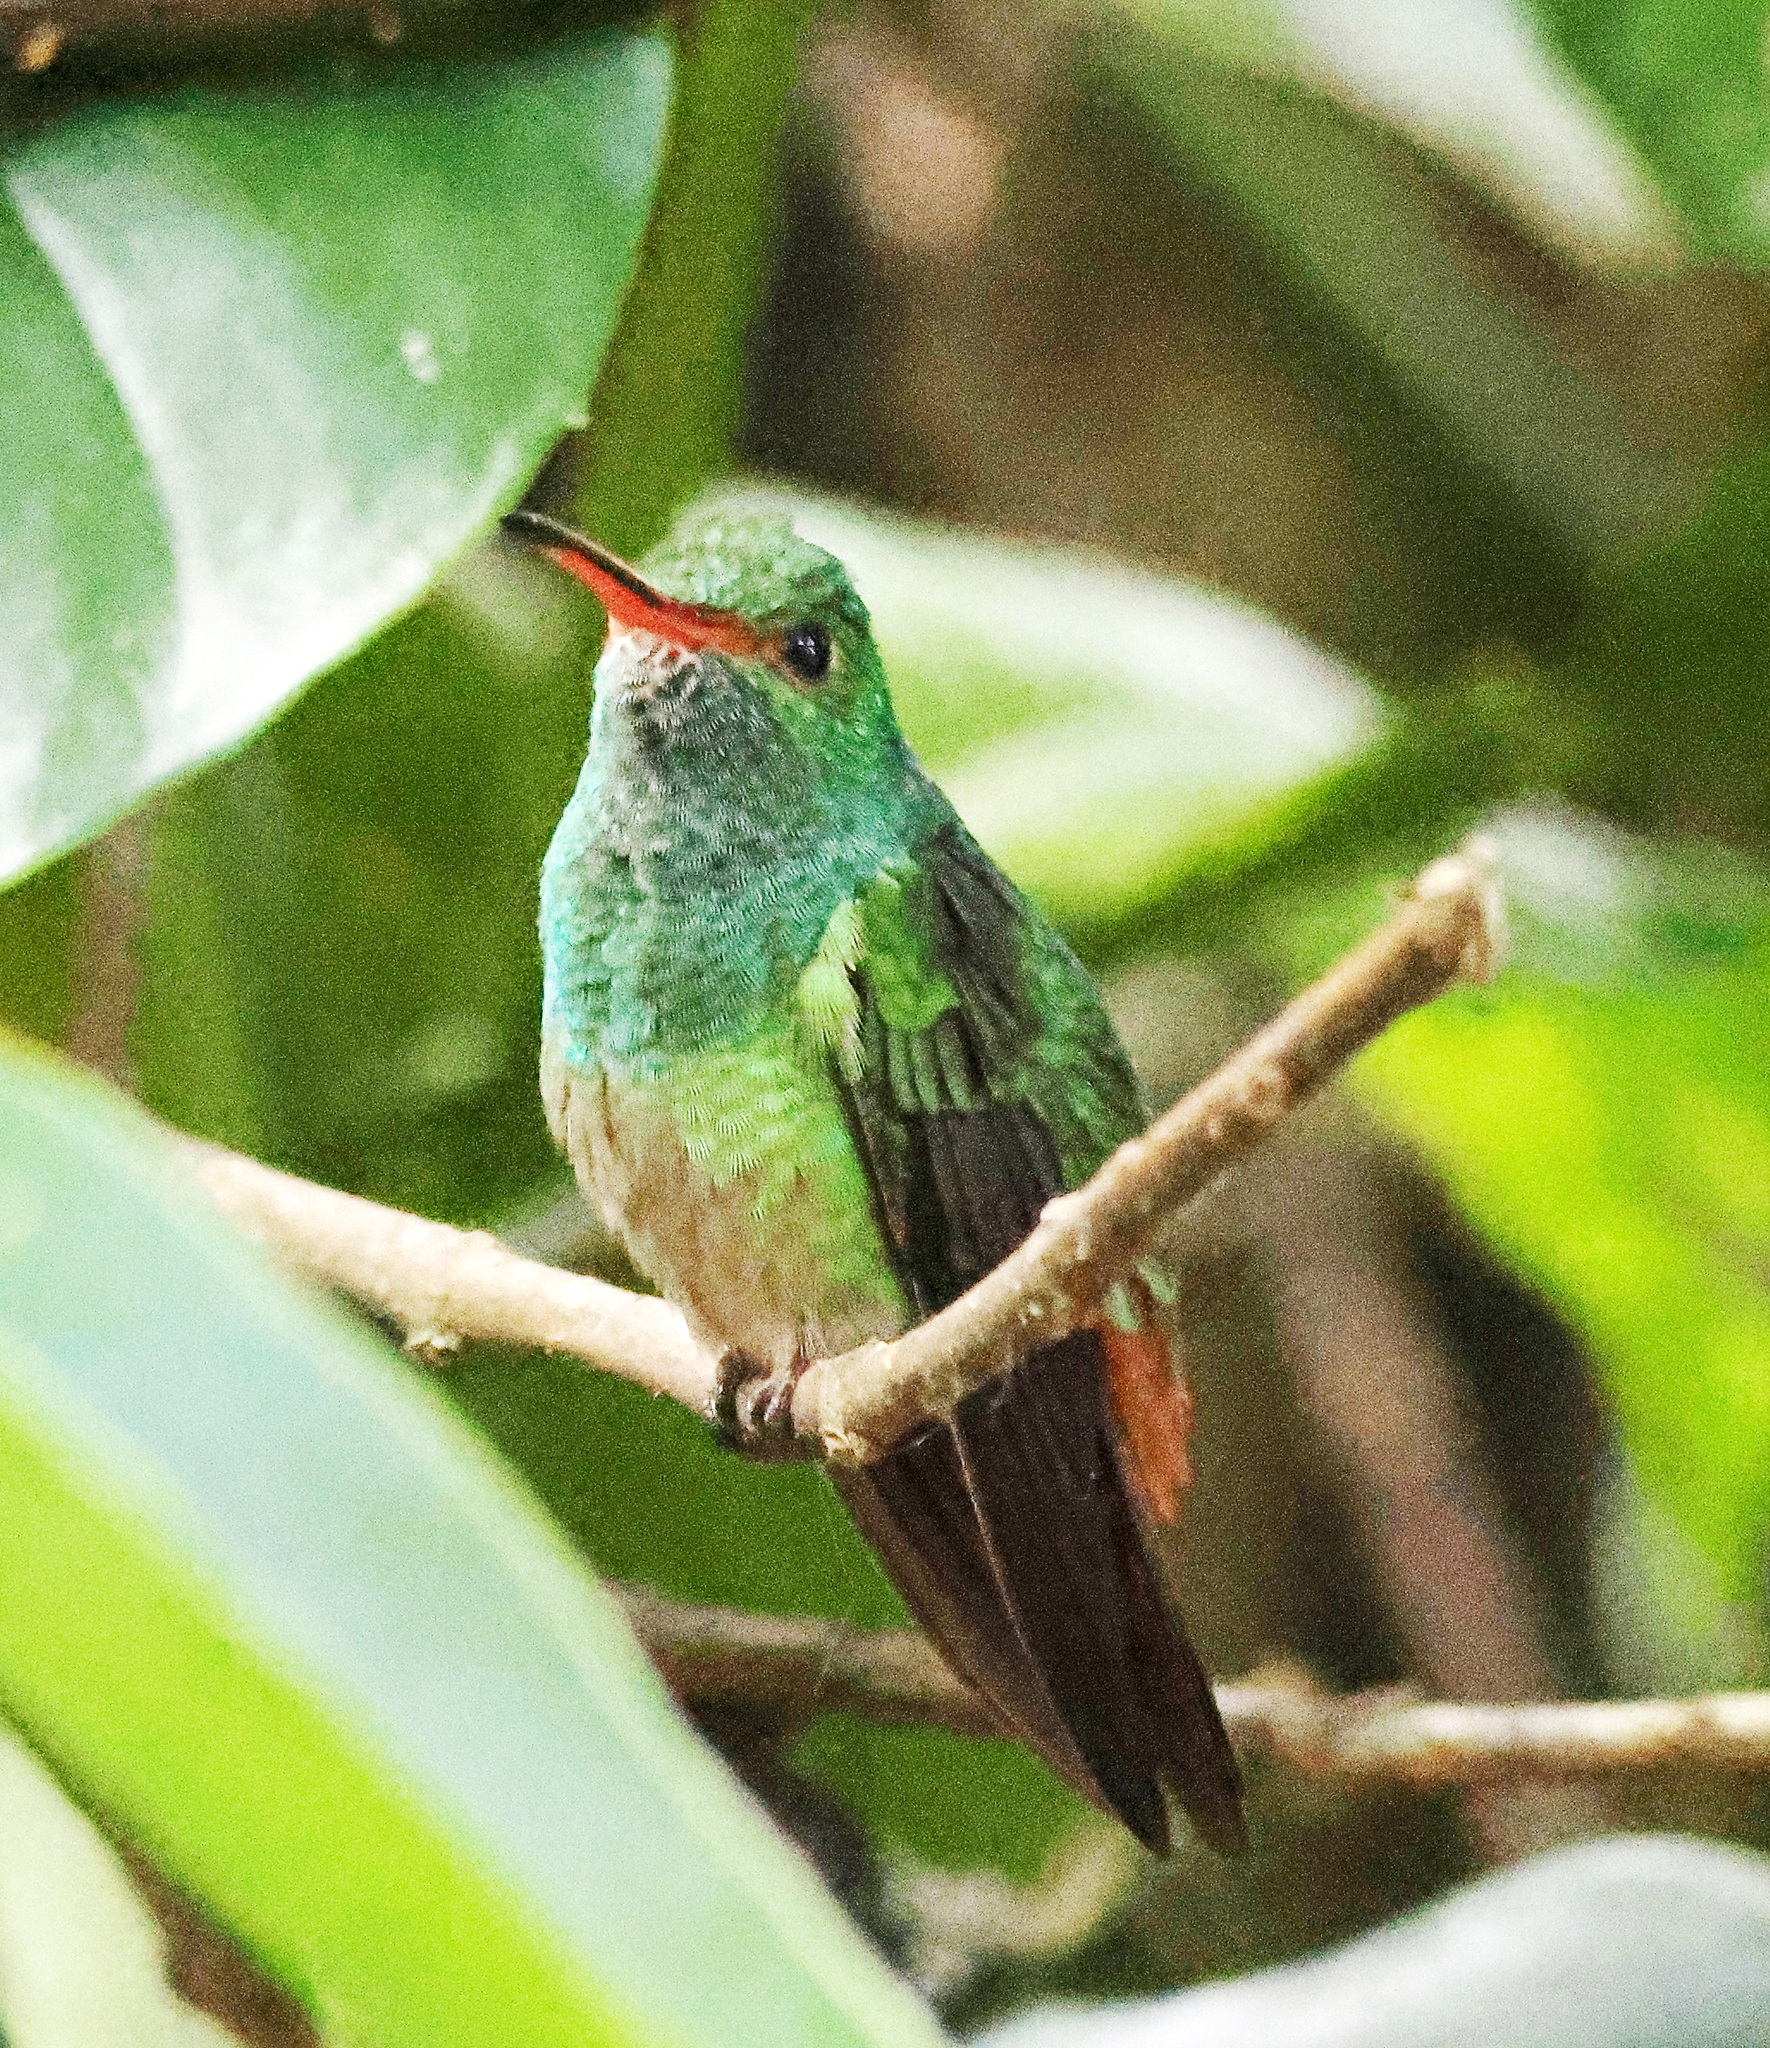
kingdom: Animalia
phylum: Chordata
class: Aves
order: Apodiformes
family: Trochilidae
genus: Amazilia
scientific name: Amazilia tzacatl
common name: Rufous-tailed hummingbird
